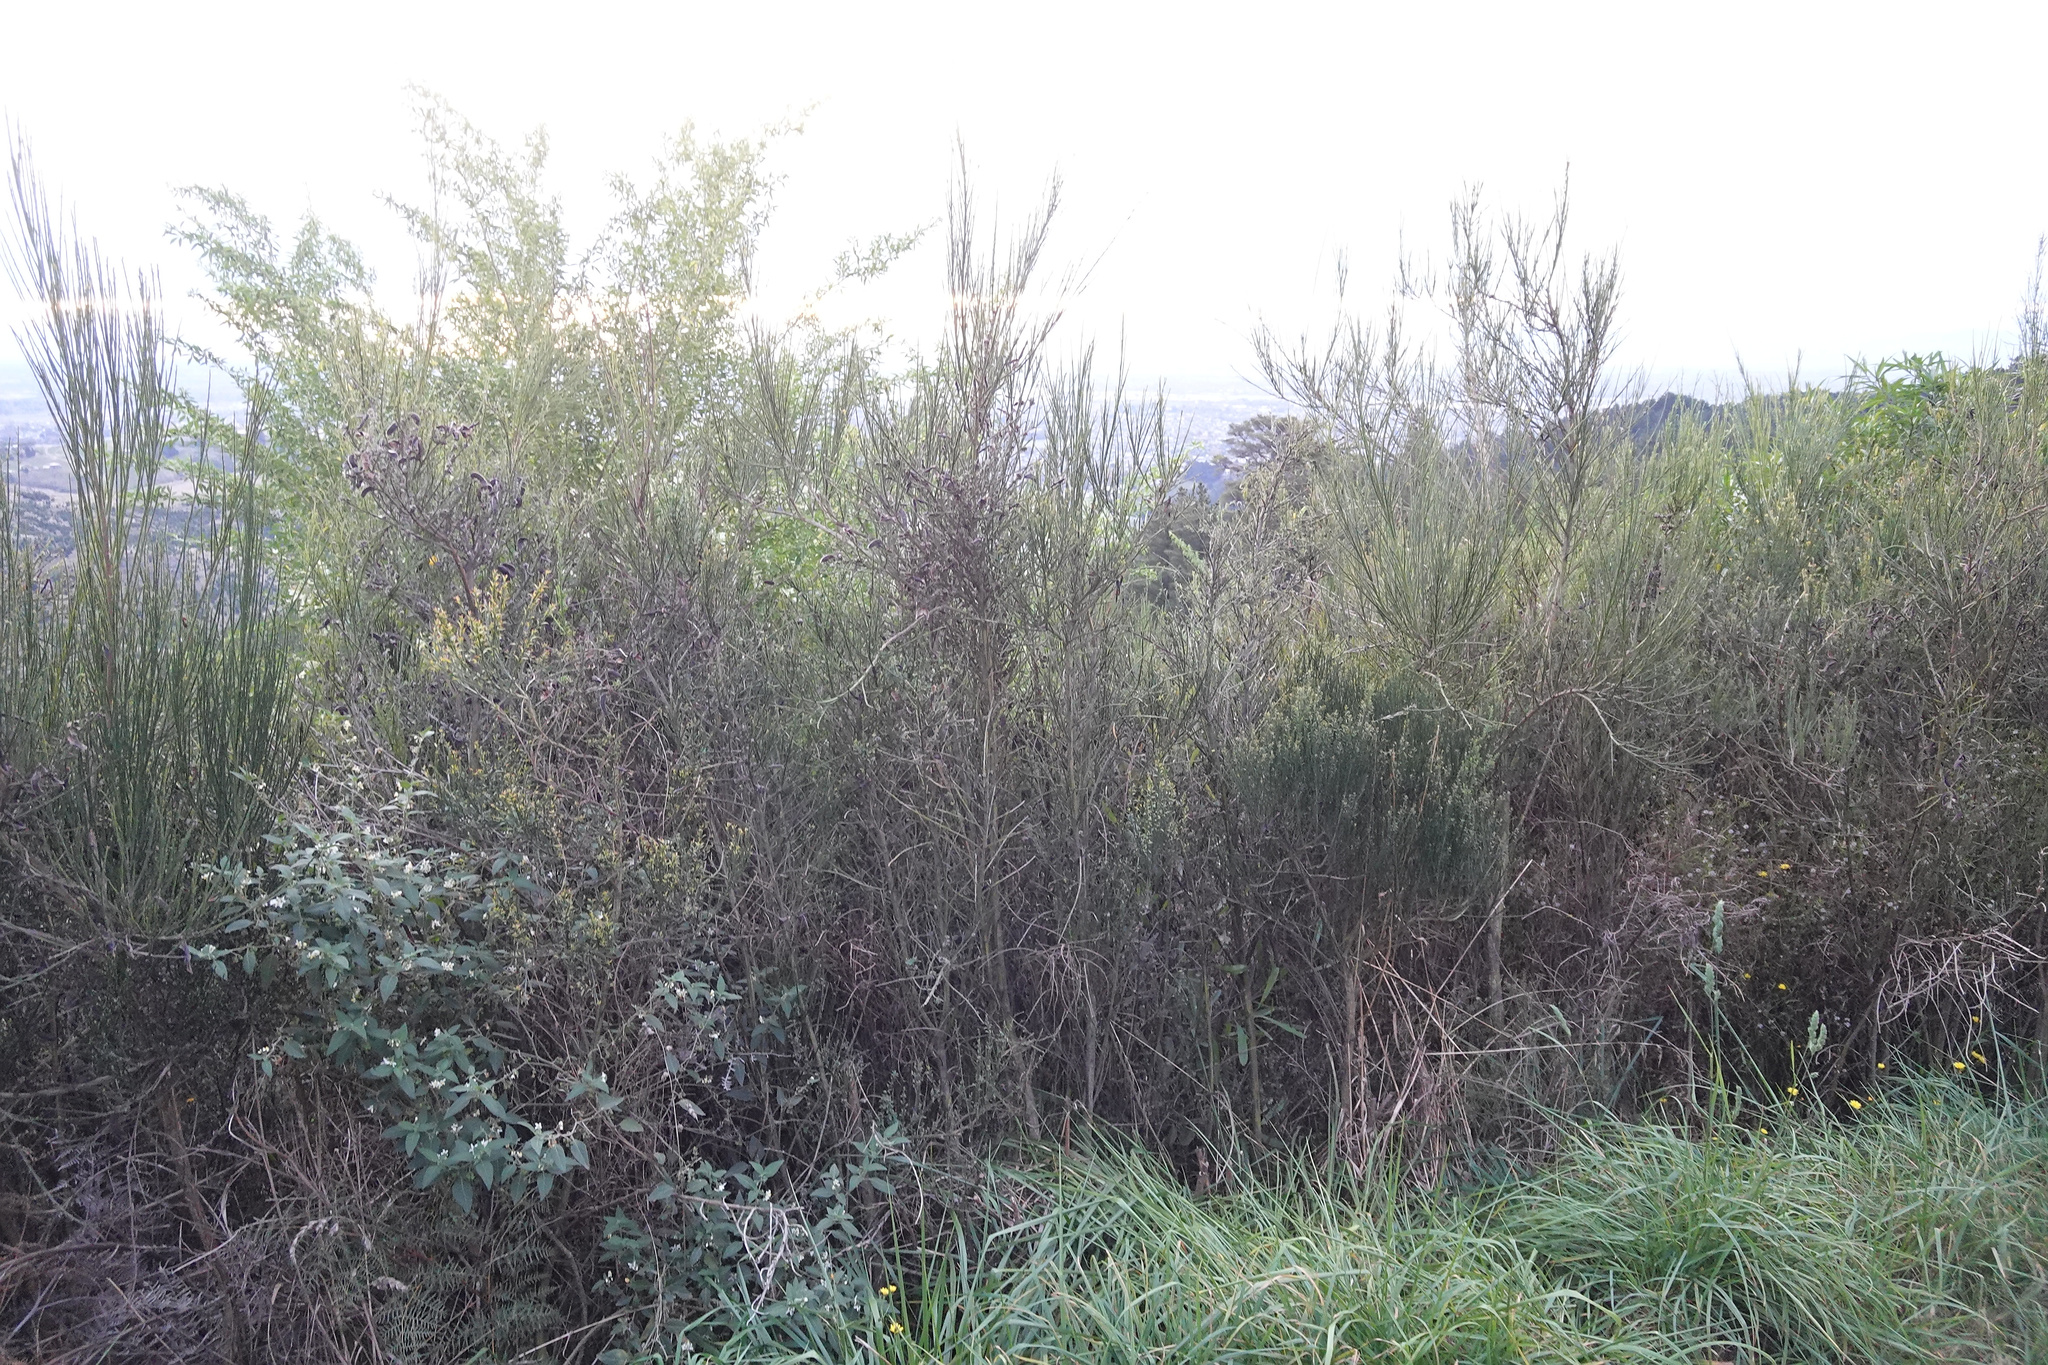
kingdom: Plantae
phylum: Tracheophyta
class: Magnoliopsida
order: Fabales
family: Fabaceae
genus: Cytisus
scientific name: Cytisus scoparius
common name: Scotch broom
